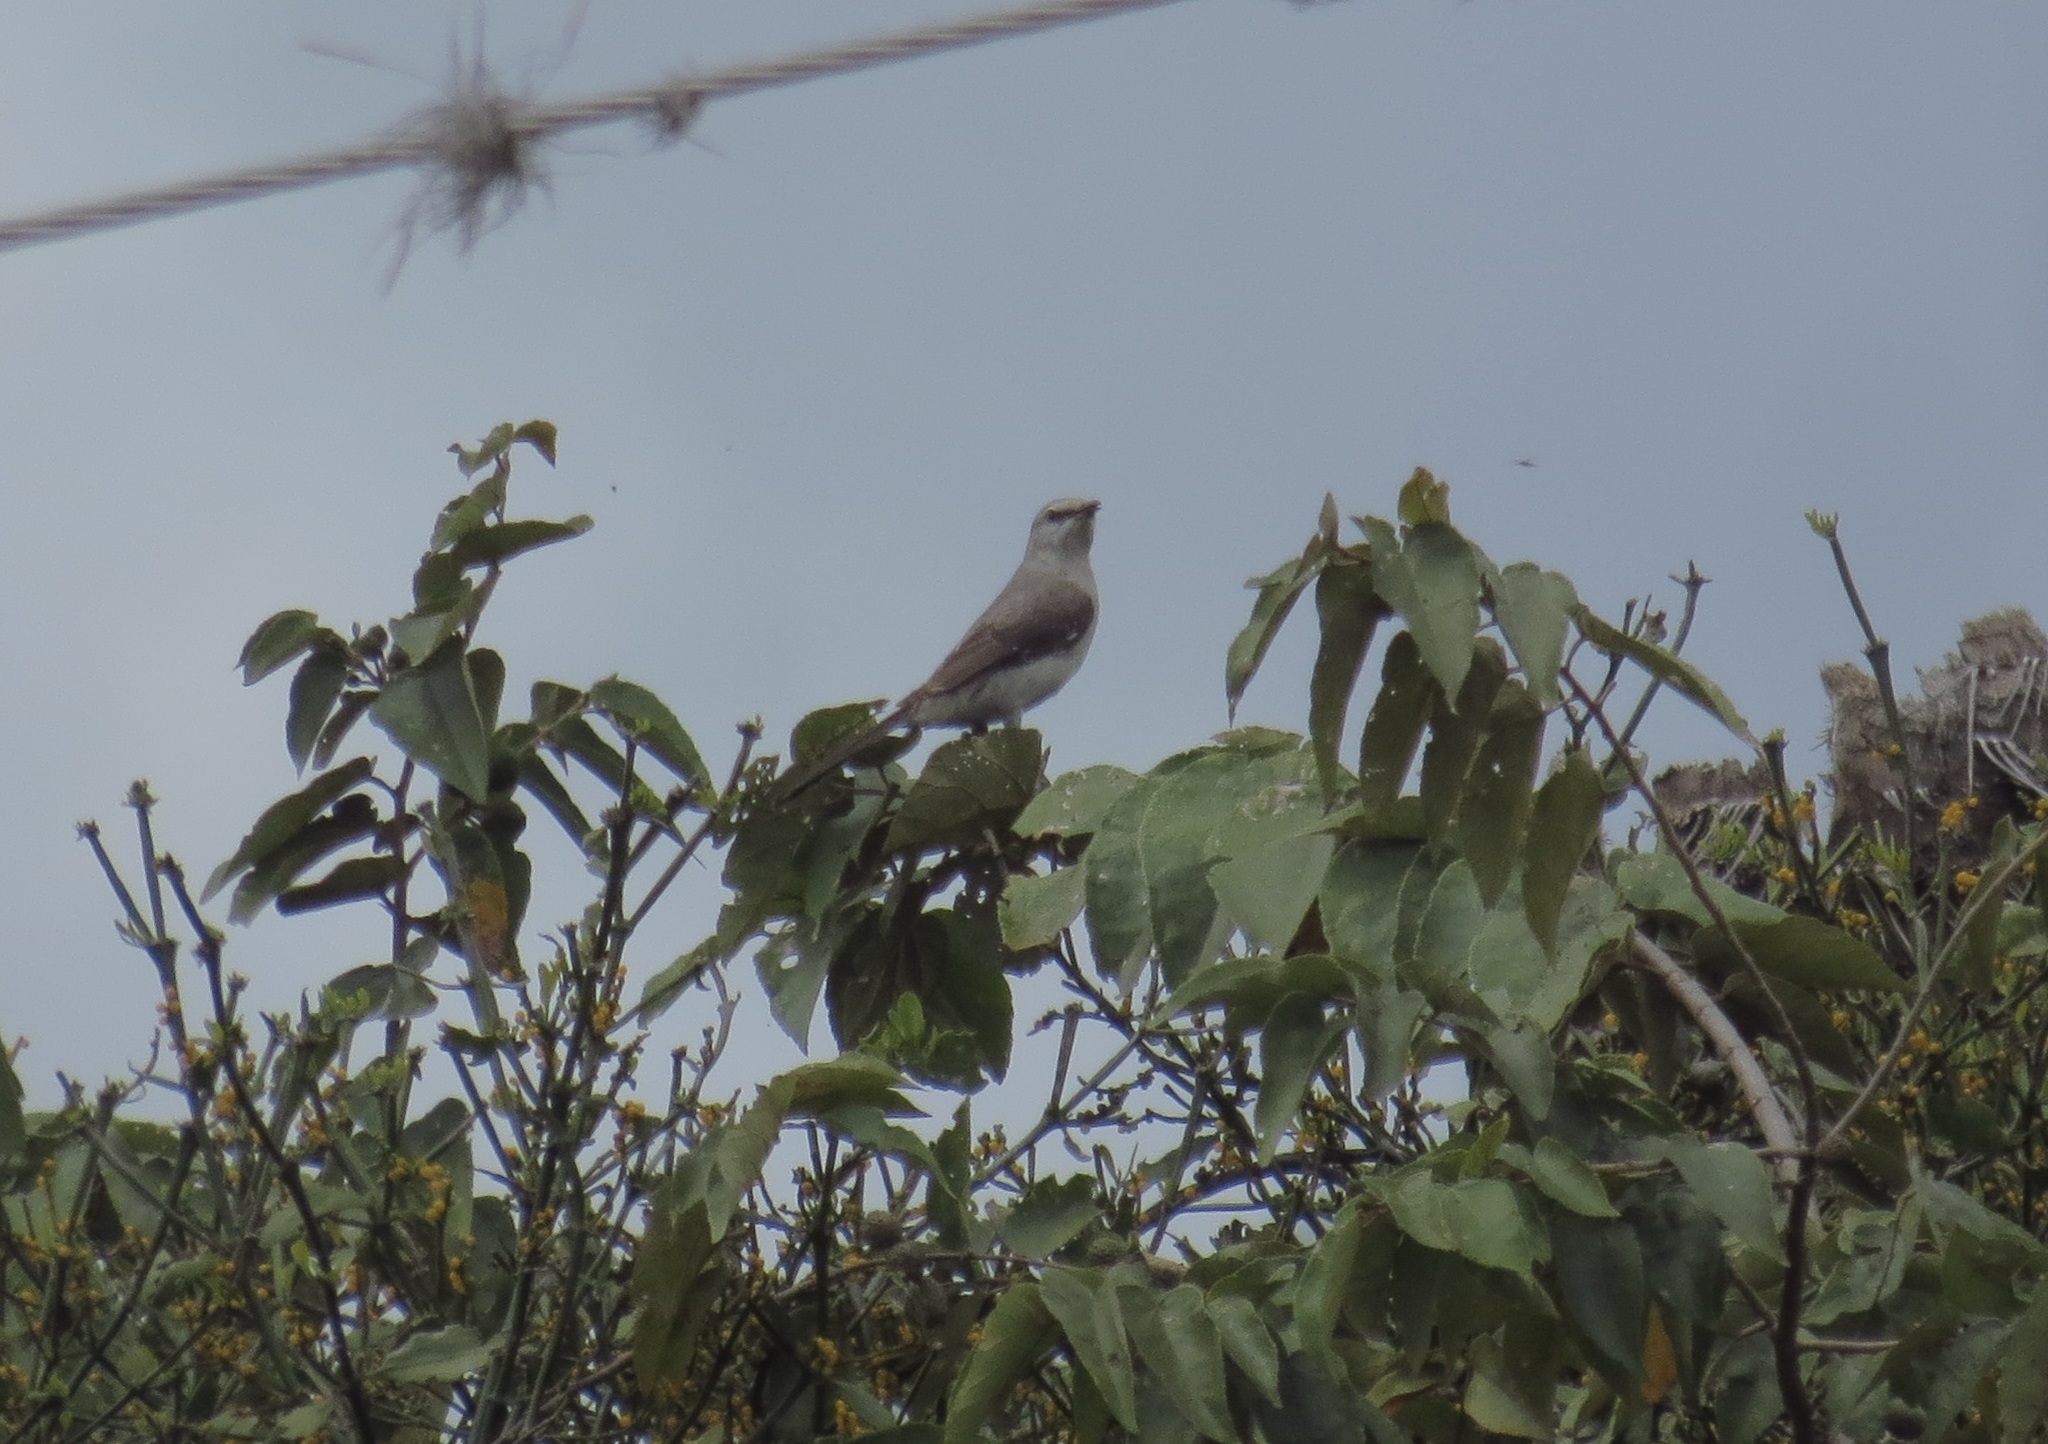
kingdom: Animalia
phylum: Chordata
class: Aves
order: Passeriformes
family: Mimidae
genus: Mimus
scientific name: Mimus gilvus
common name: Tropical mockingbird
